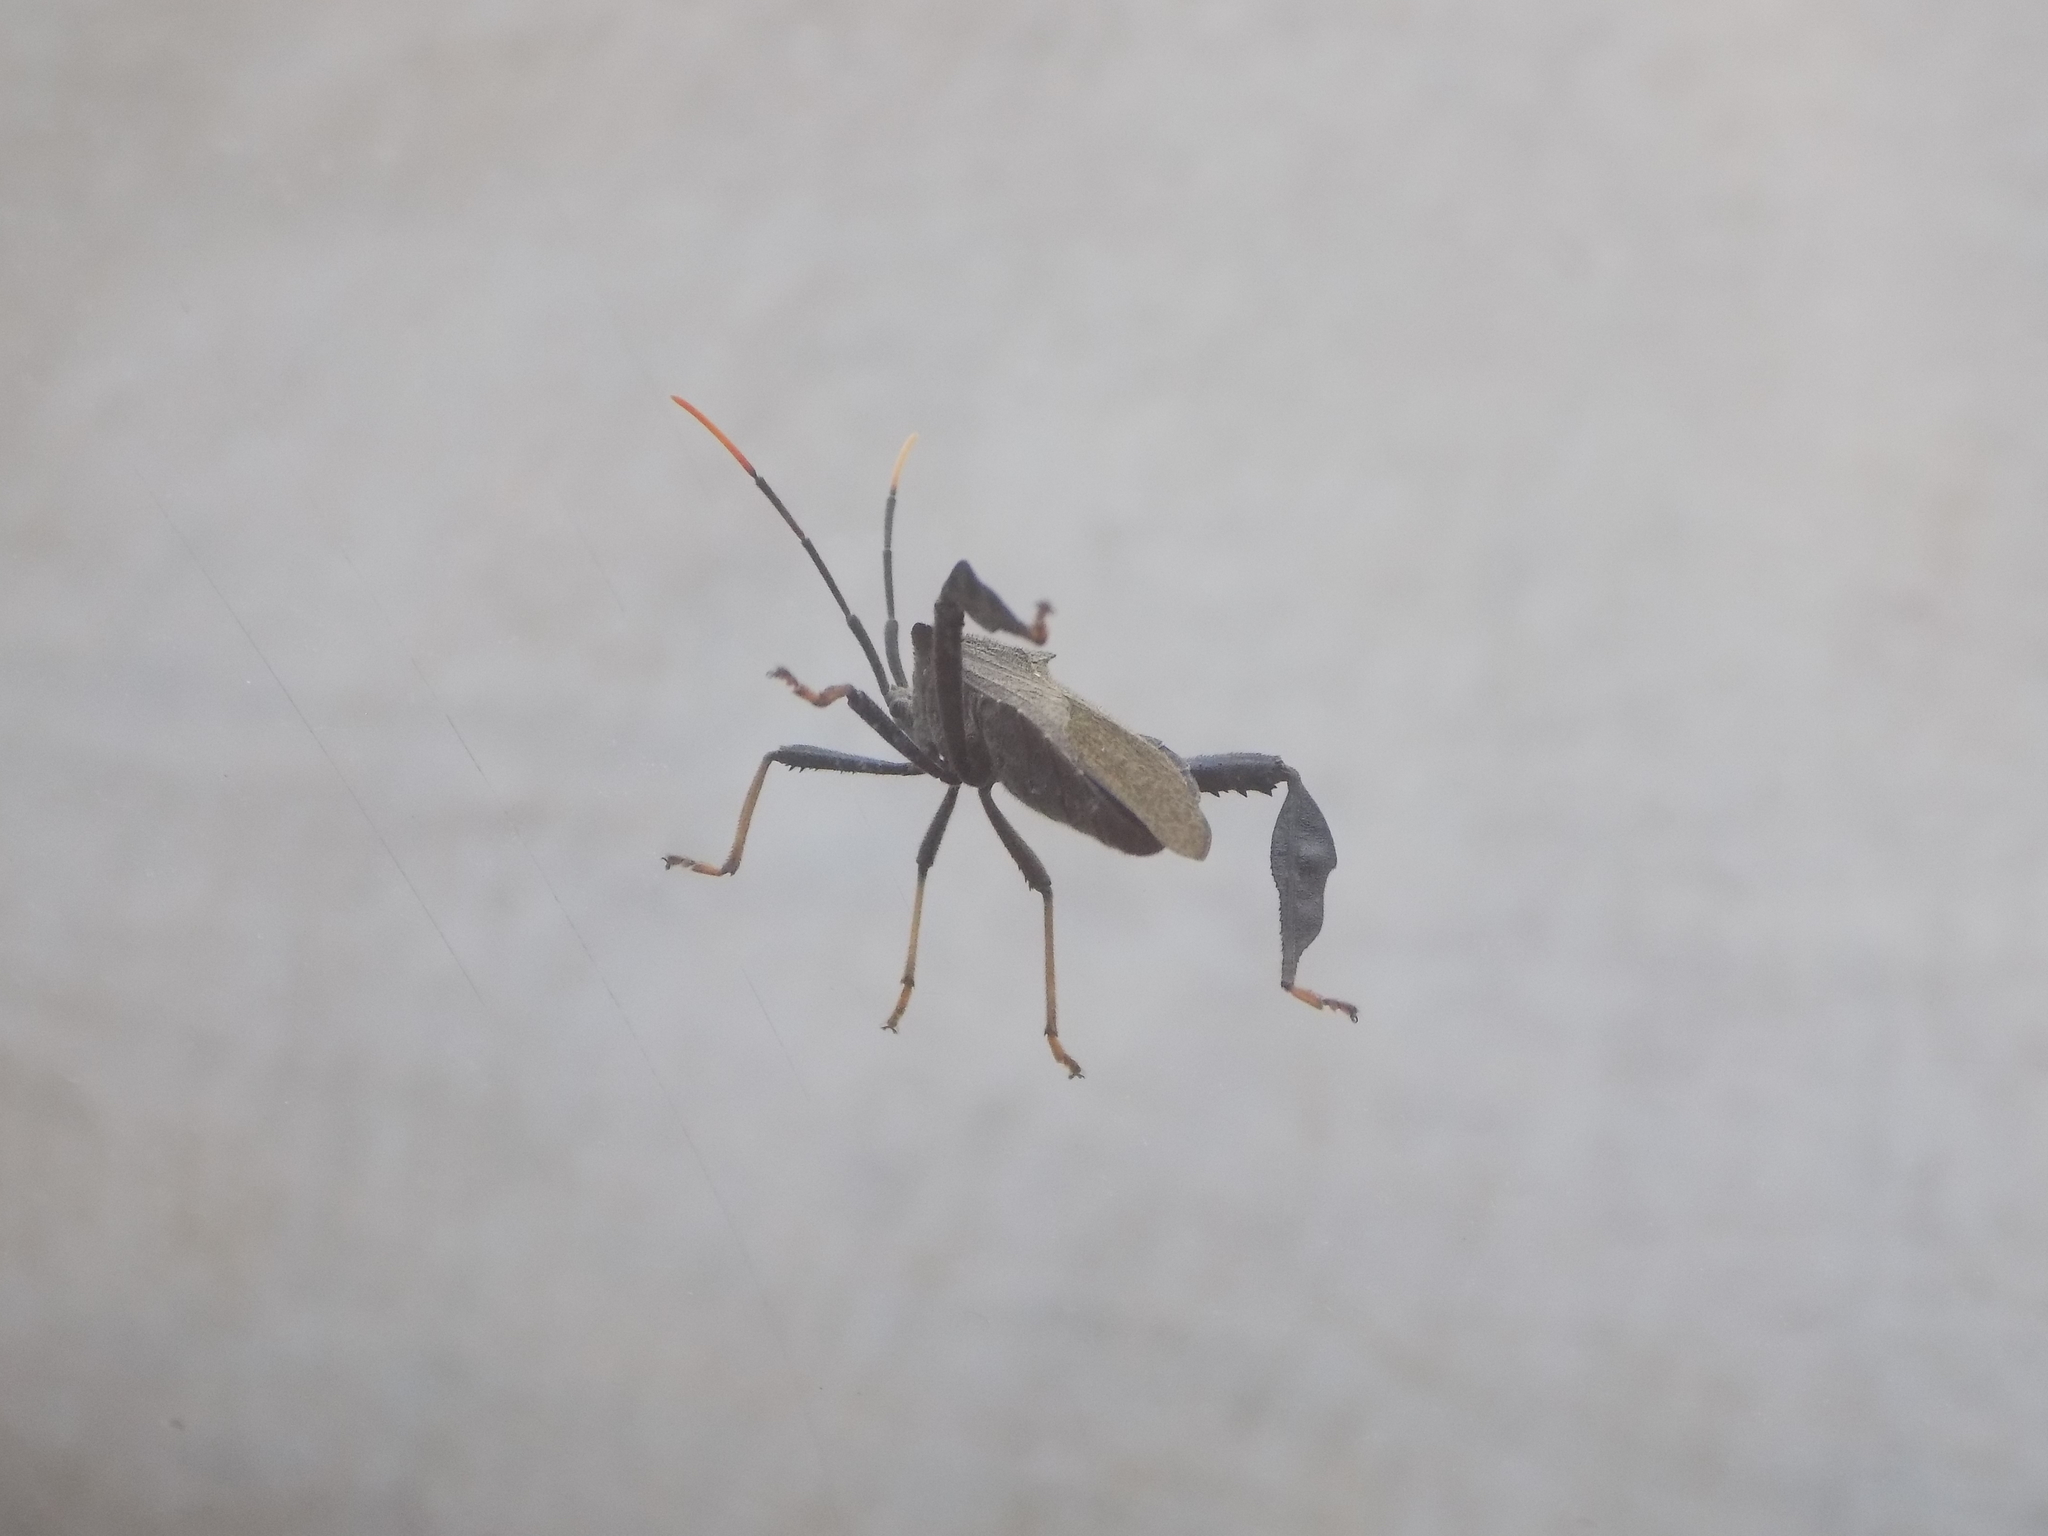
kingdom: Animalia
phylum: Arthropoda
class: Insecta
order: Hemiptera
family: Coreidae
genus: Acanthocephala
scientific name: Acanthocephala terminalis
